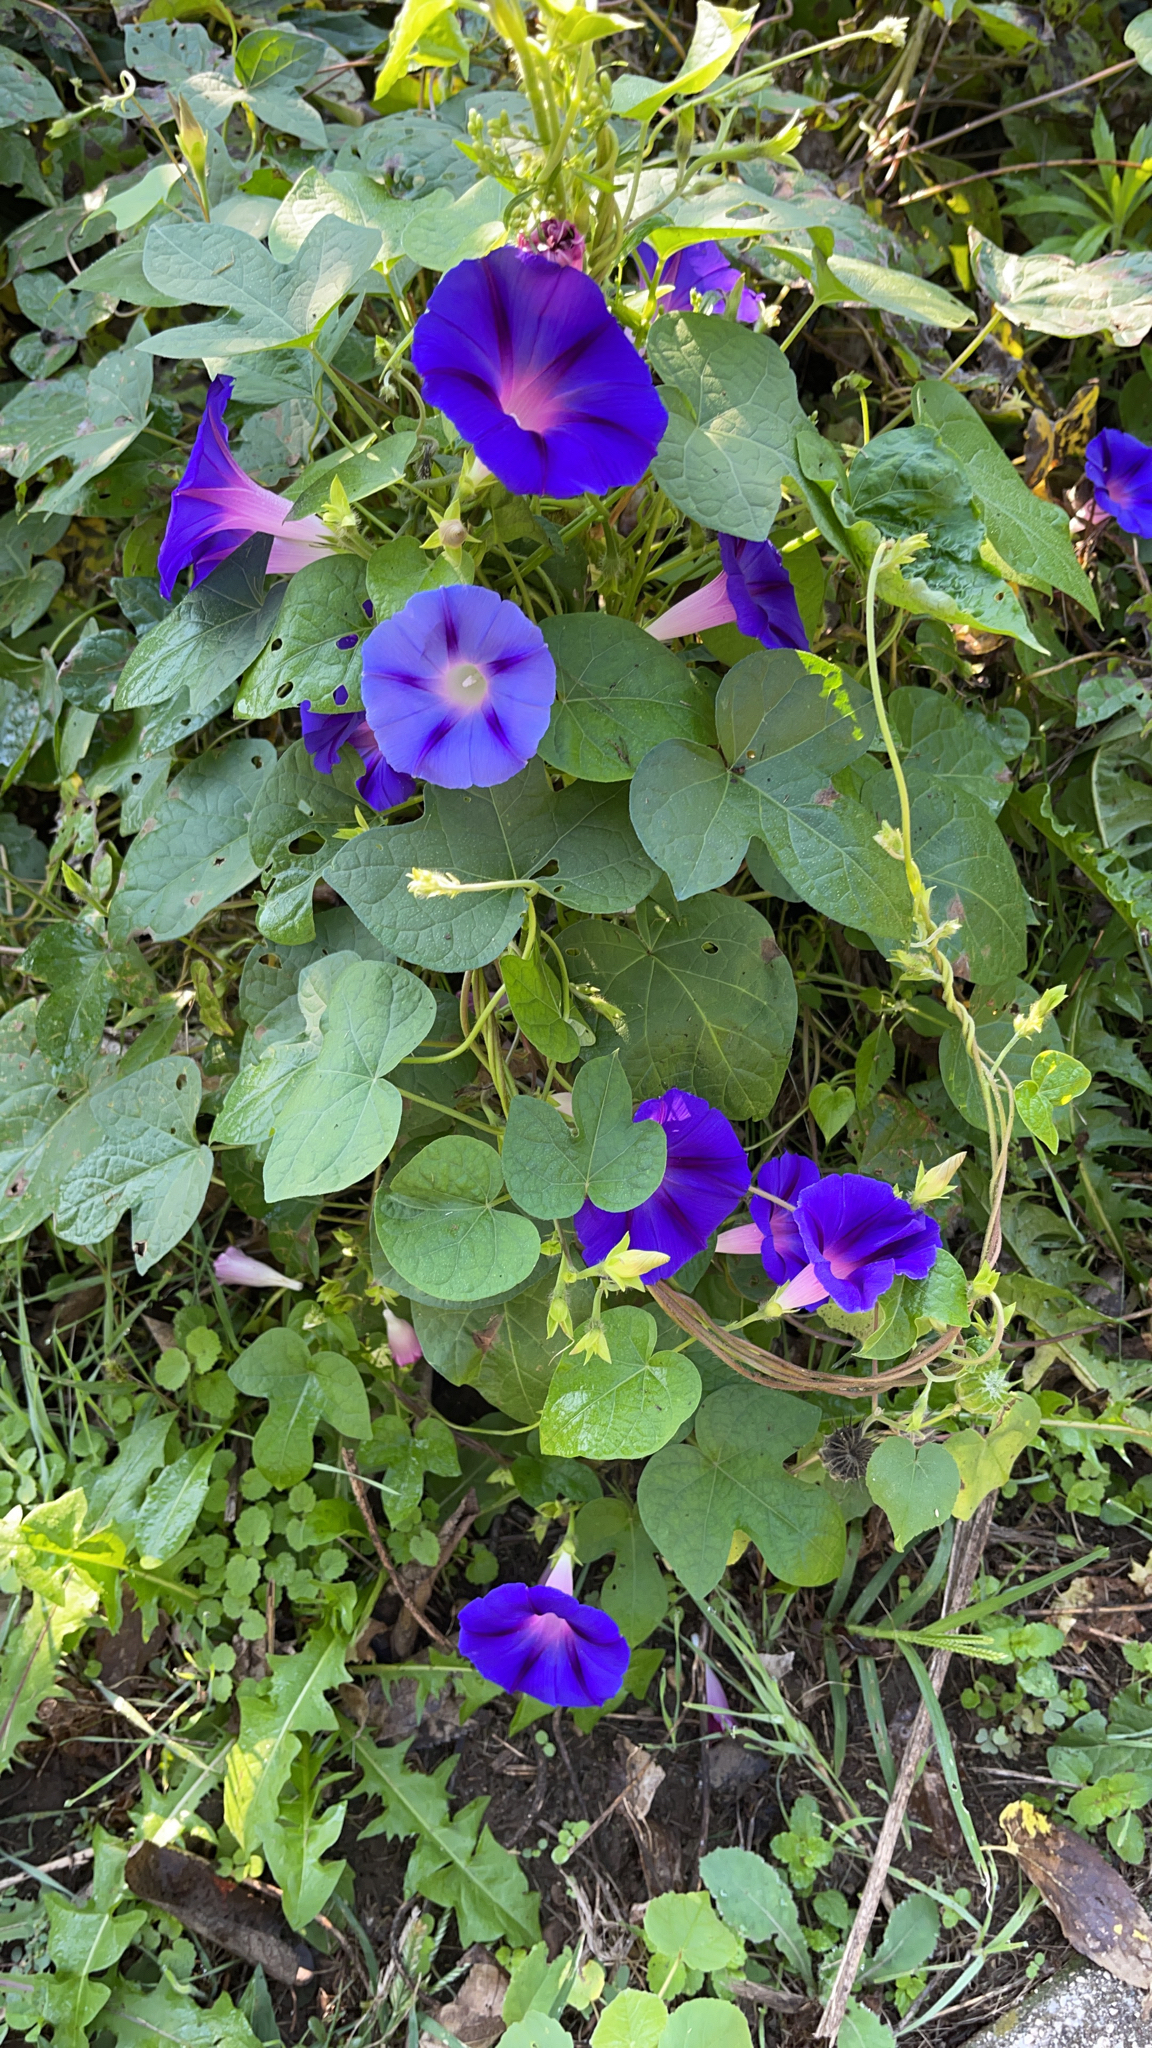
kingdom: Plantae
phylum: Tracheophyta
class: Magnoliopsida
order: Solanales
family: Convolvulaceae
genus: Ipomoea
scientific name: Ipomoea purpurea
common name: Common morning-glory
